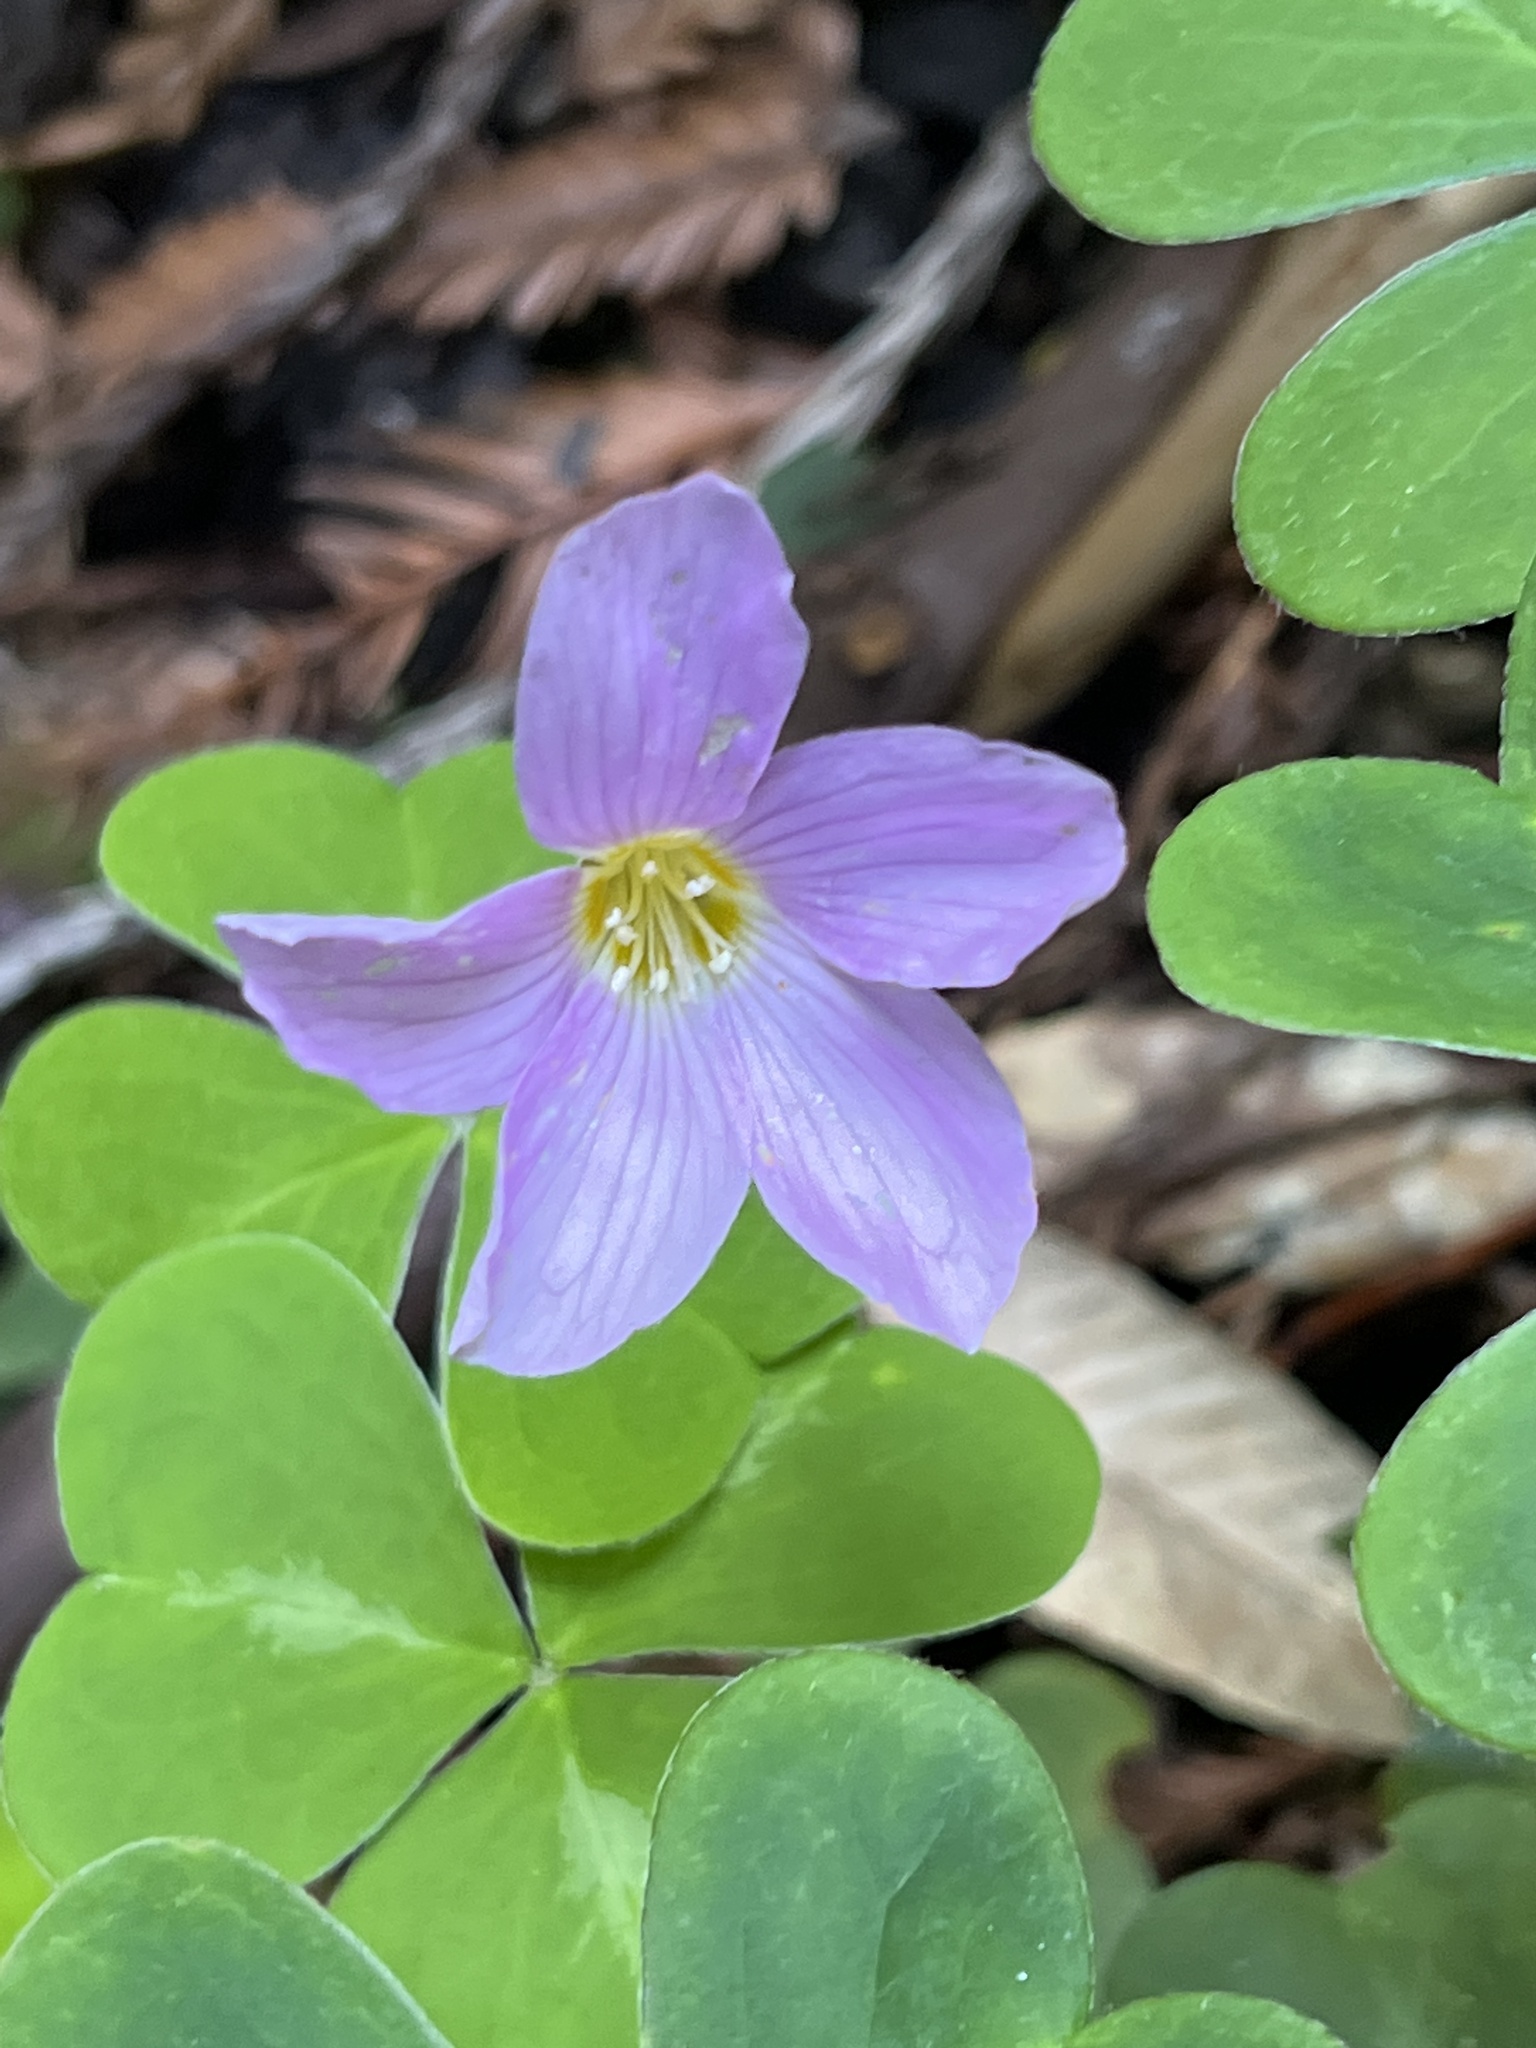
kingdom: Plantae
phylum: Tracheophyta
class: Magnoliopsida
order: Oxalidales
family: Oxalidaceae
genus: Oxalis
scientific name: Oxalis oregana
